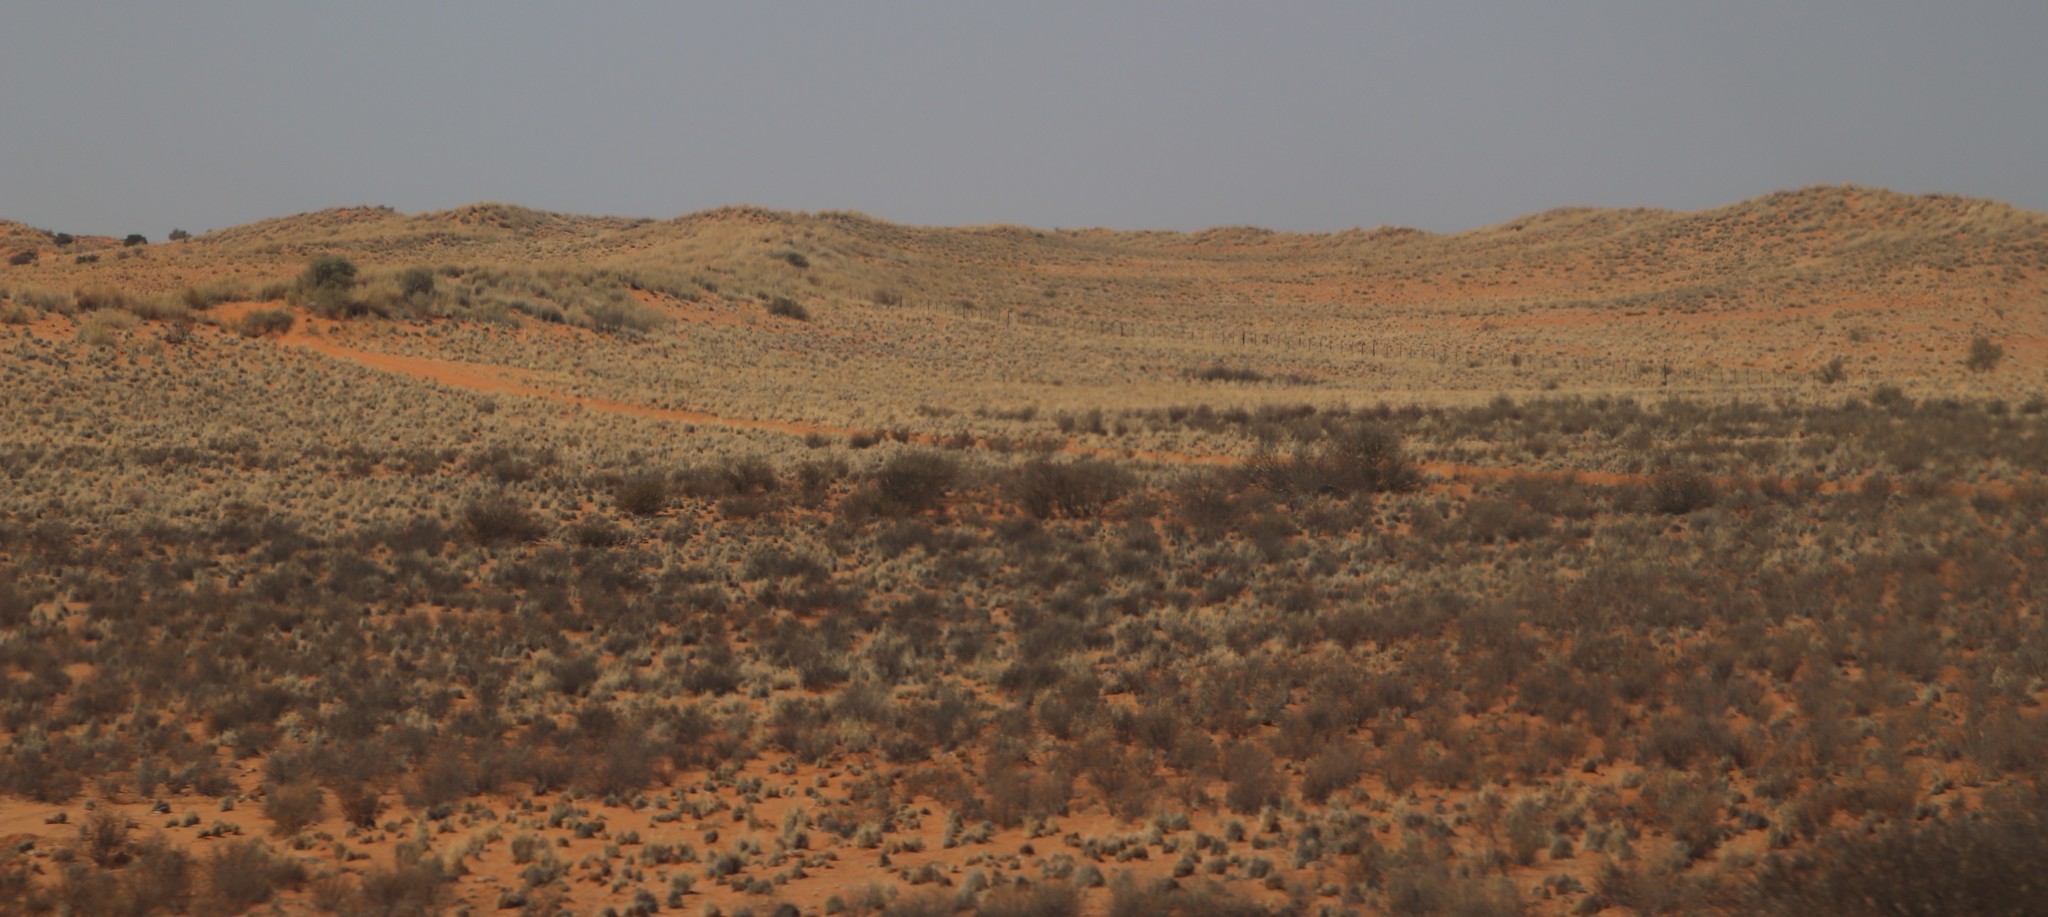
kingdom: Plantae
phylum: Tracheophyta
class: Magnoliopsida
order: Lamiales
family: Bignoniaceae
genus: Rhigozum
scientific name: Rhigozum trichotomum
